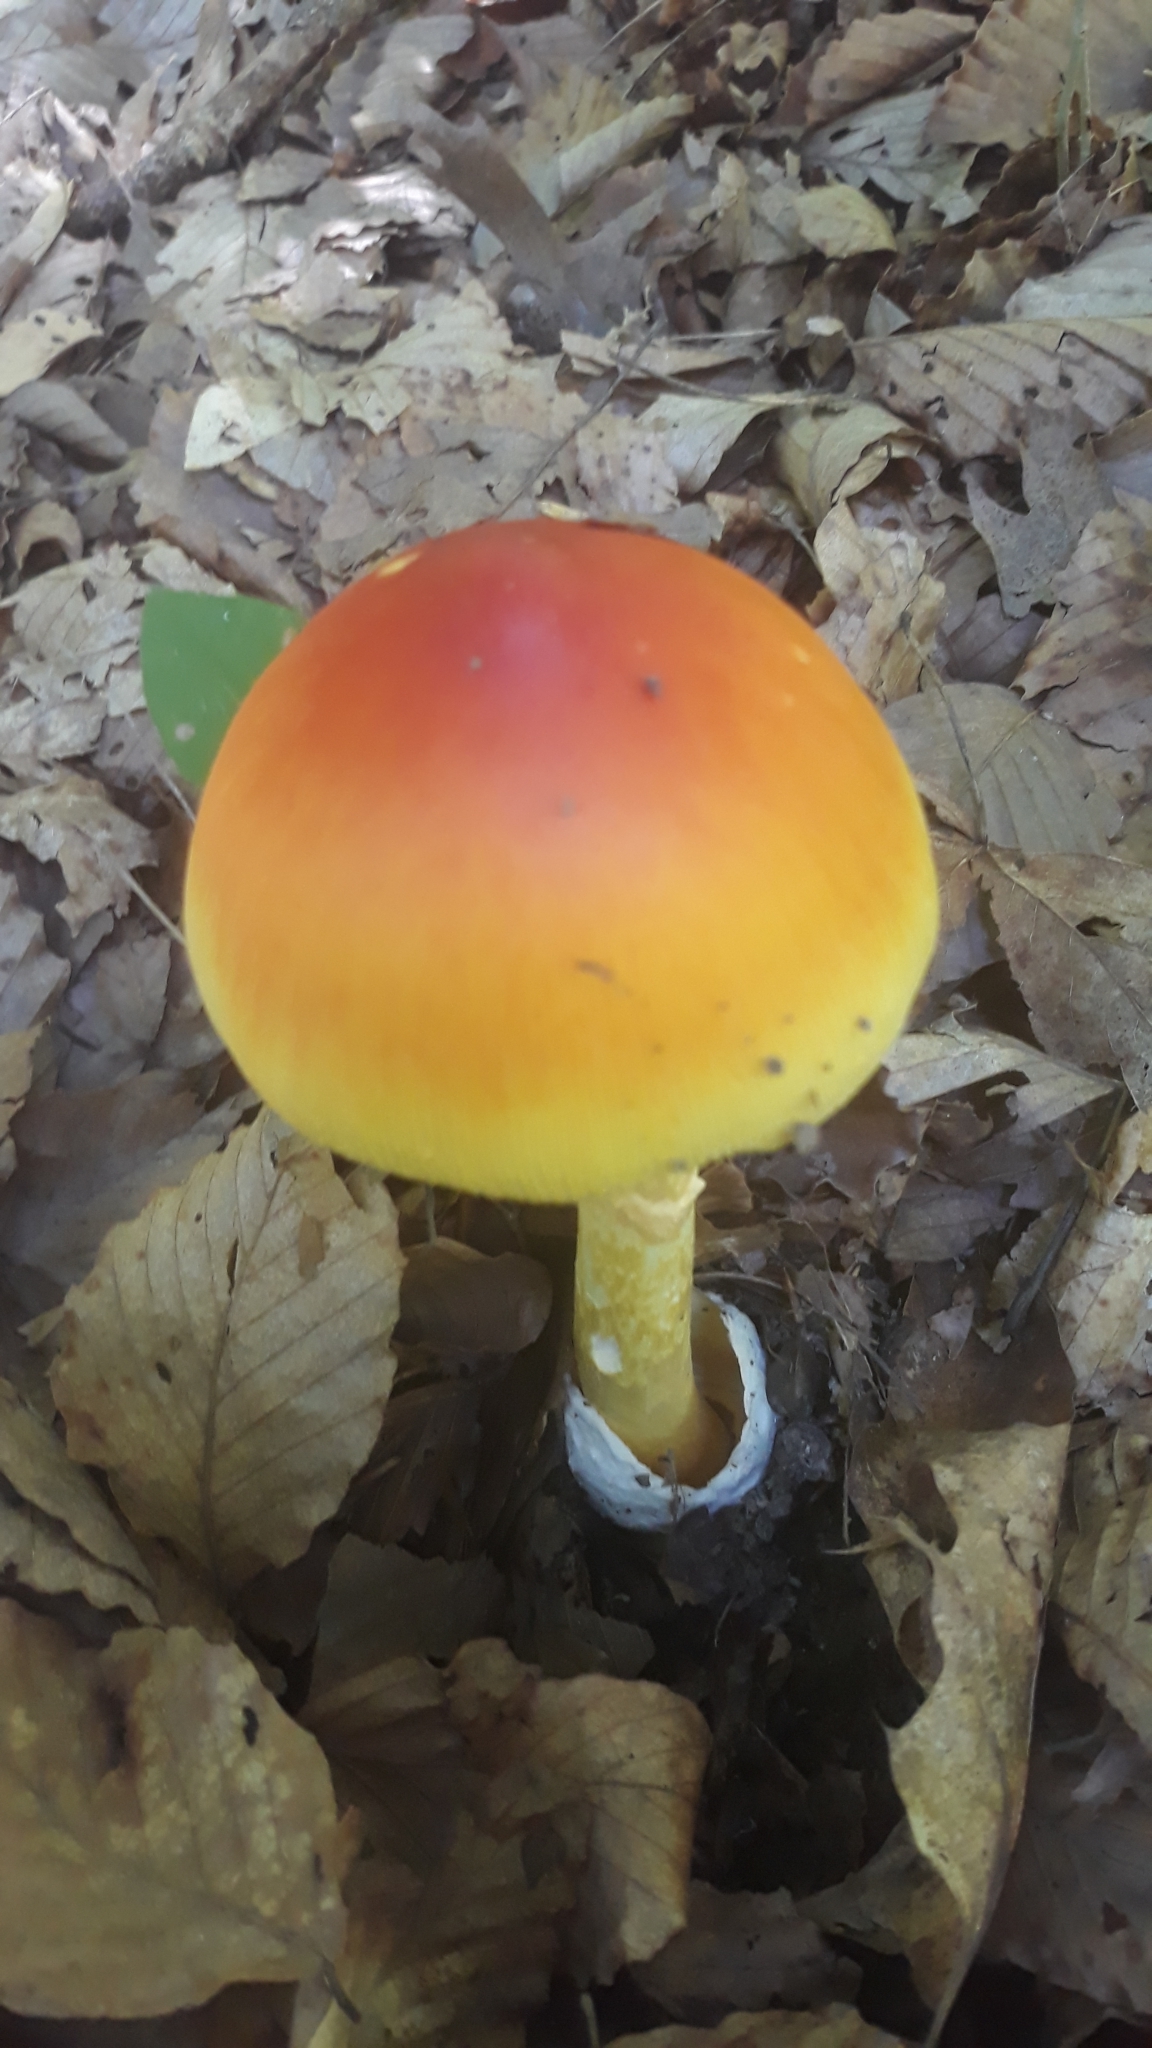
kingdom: Fungi
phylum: Basidiomycota
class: Agaricomycetes
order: Agaricales
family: Amanitaceae
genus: Amanita
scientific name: Amanita jacksonii
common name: Jackson's slender caesar
